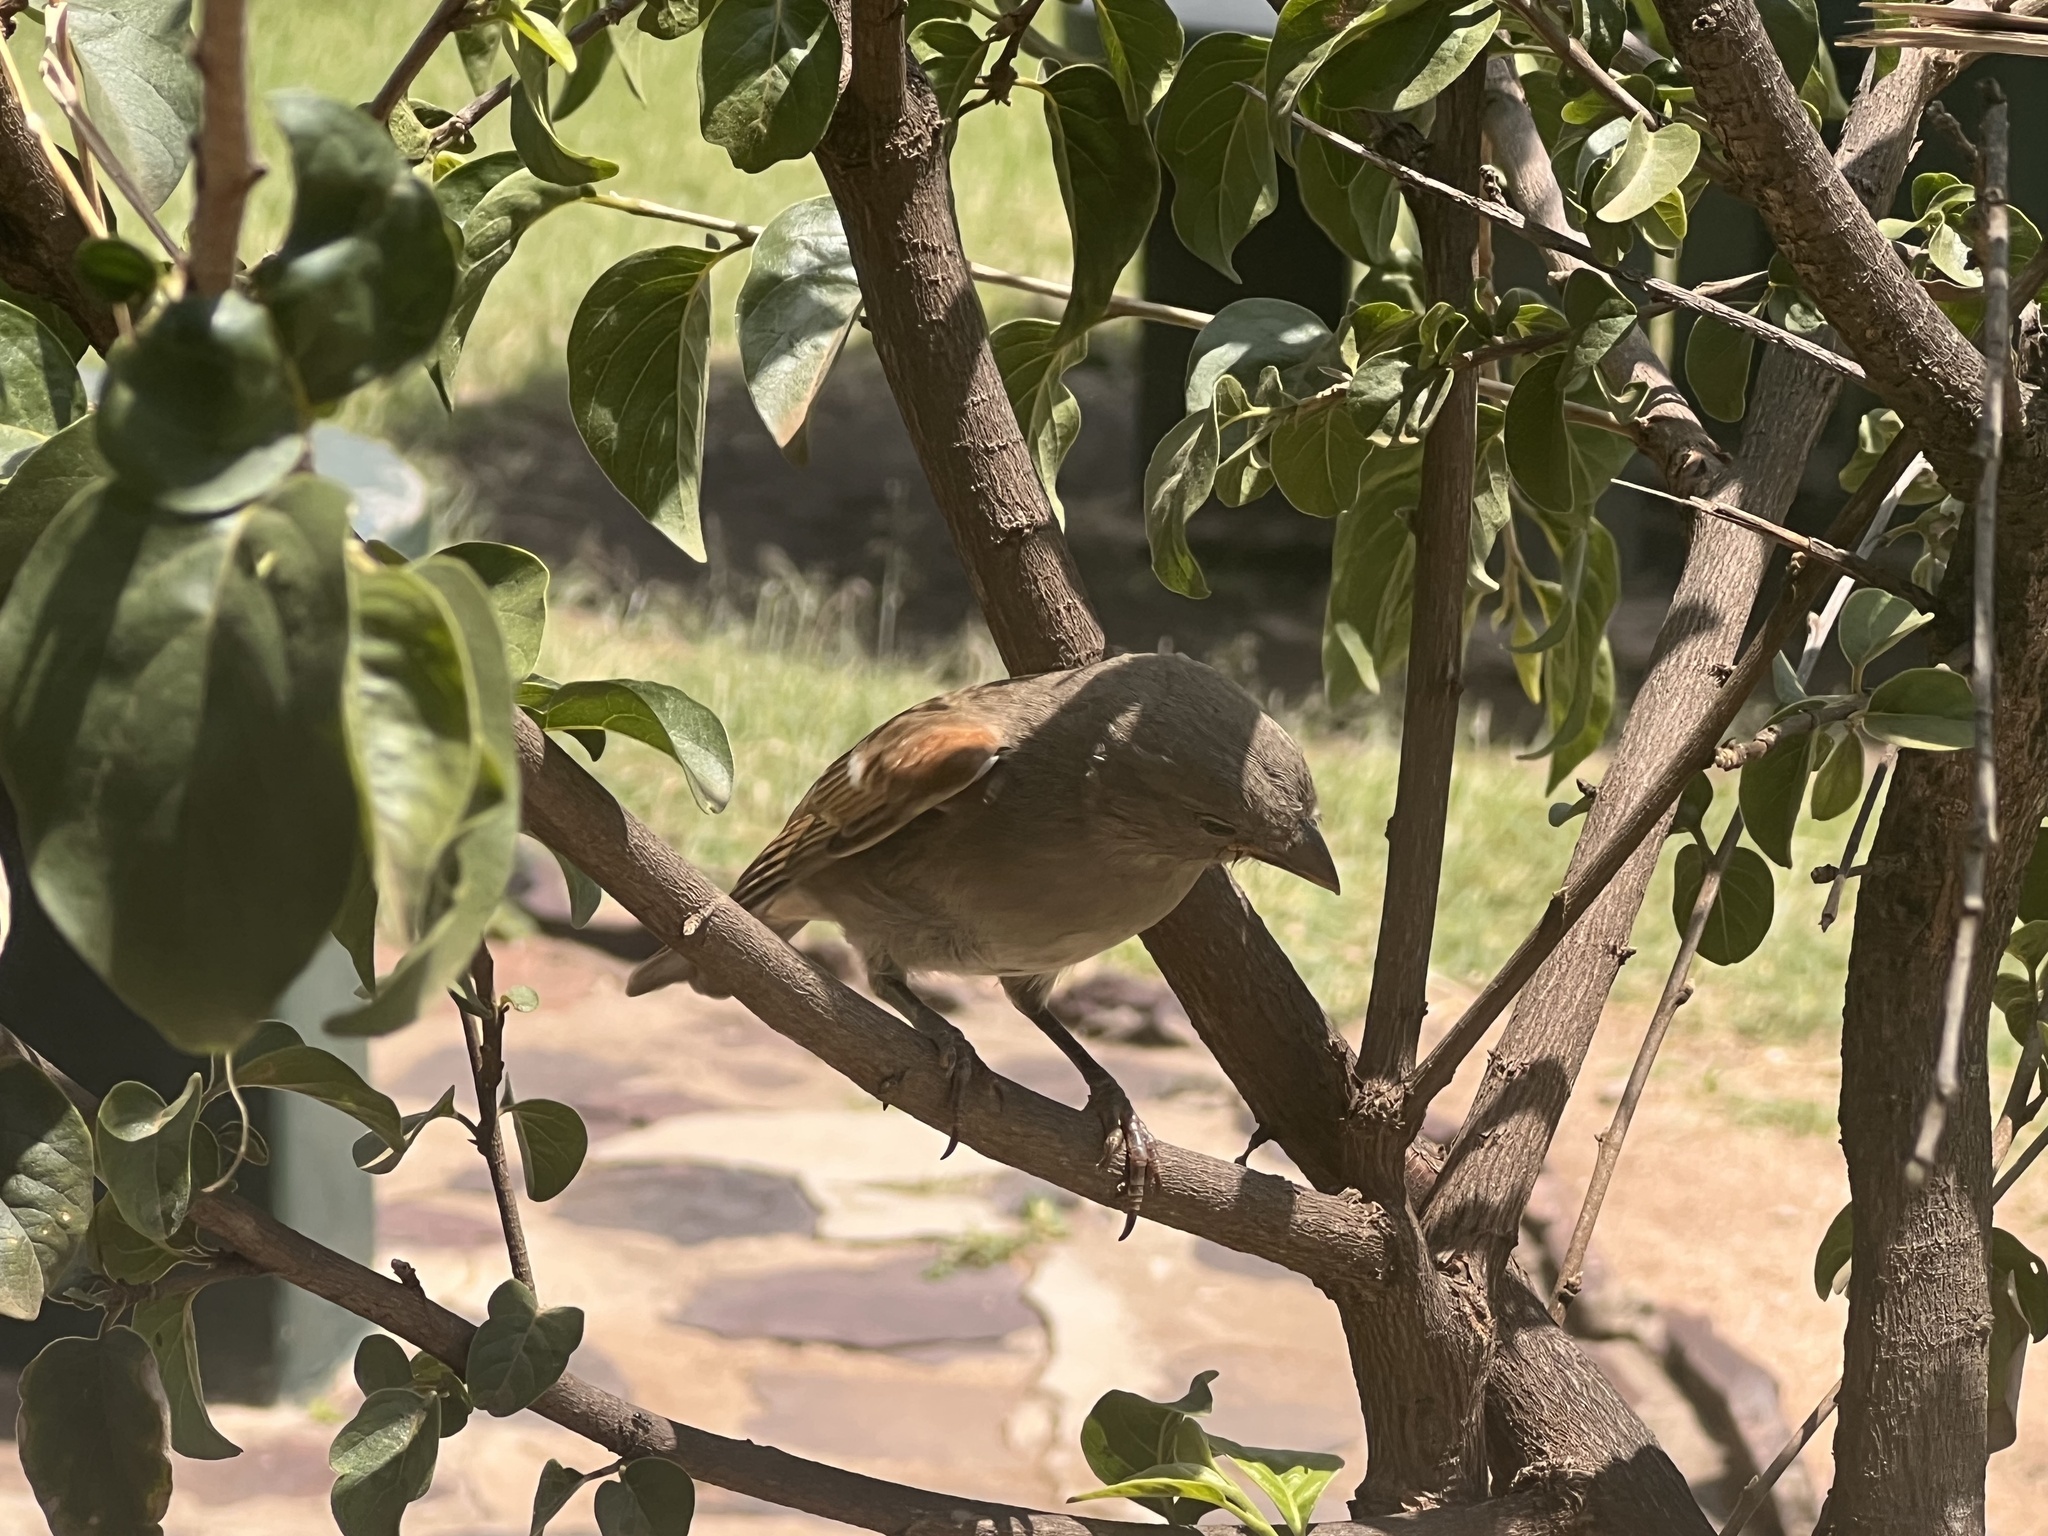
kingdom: Animalia
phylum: Chordata
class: Aves
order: Passeriformes
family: Passeridae
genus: Passer
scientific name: Passer suahelicus
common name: Swahili sparrow
